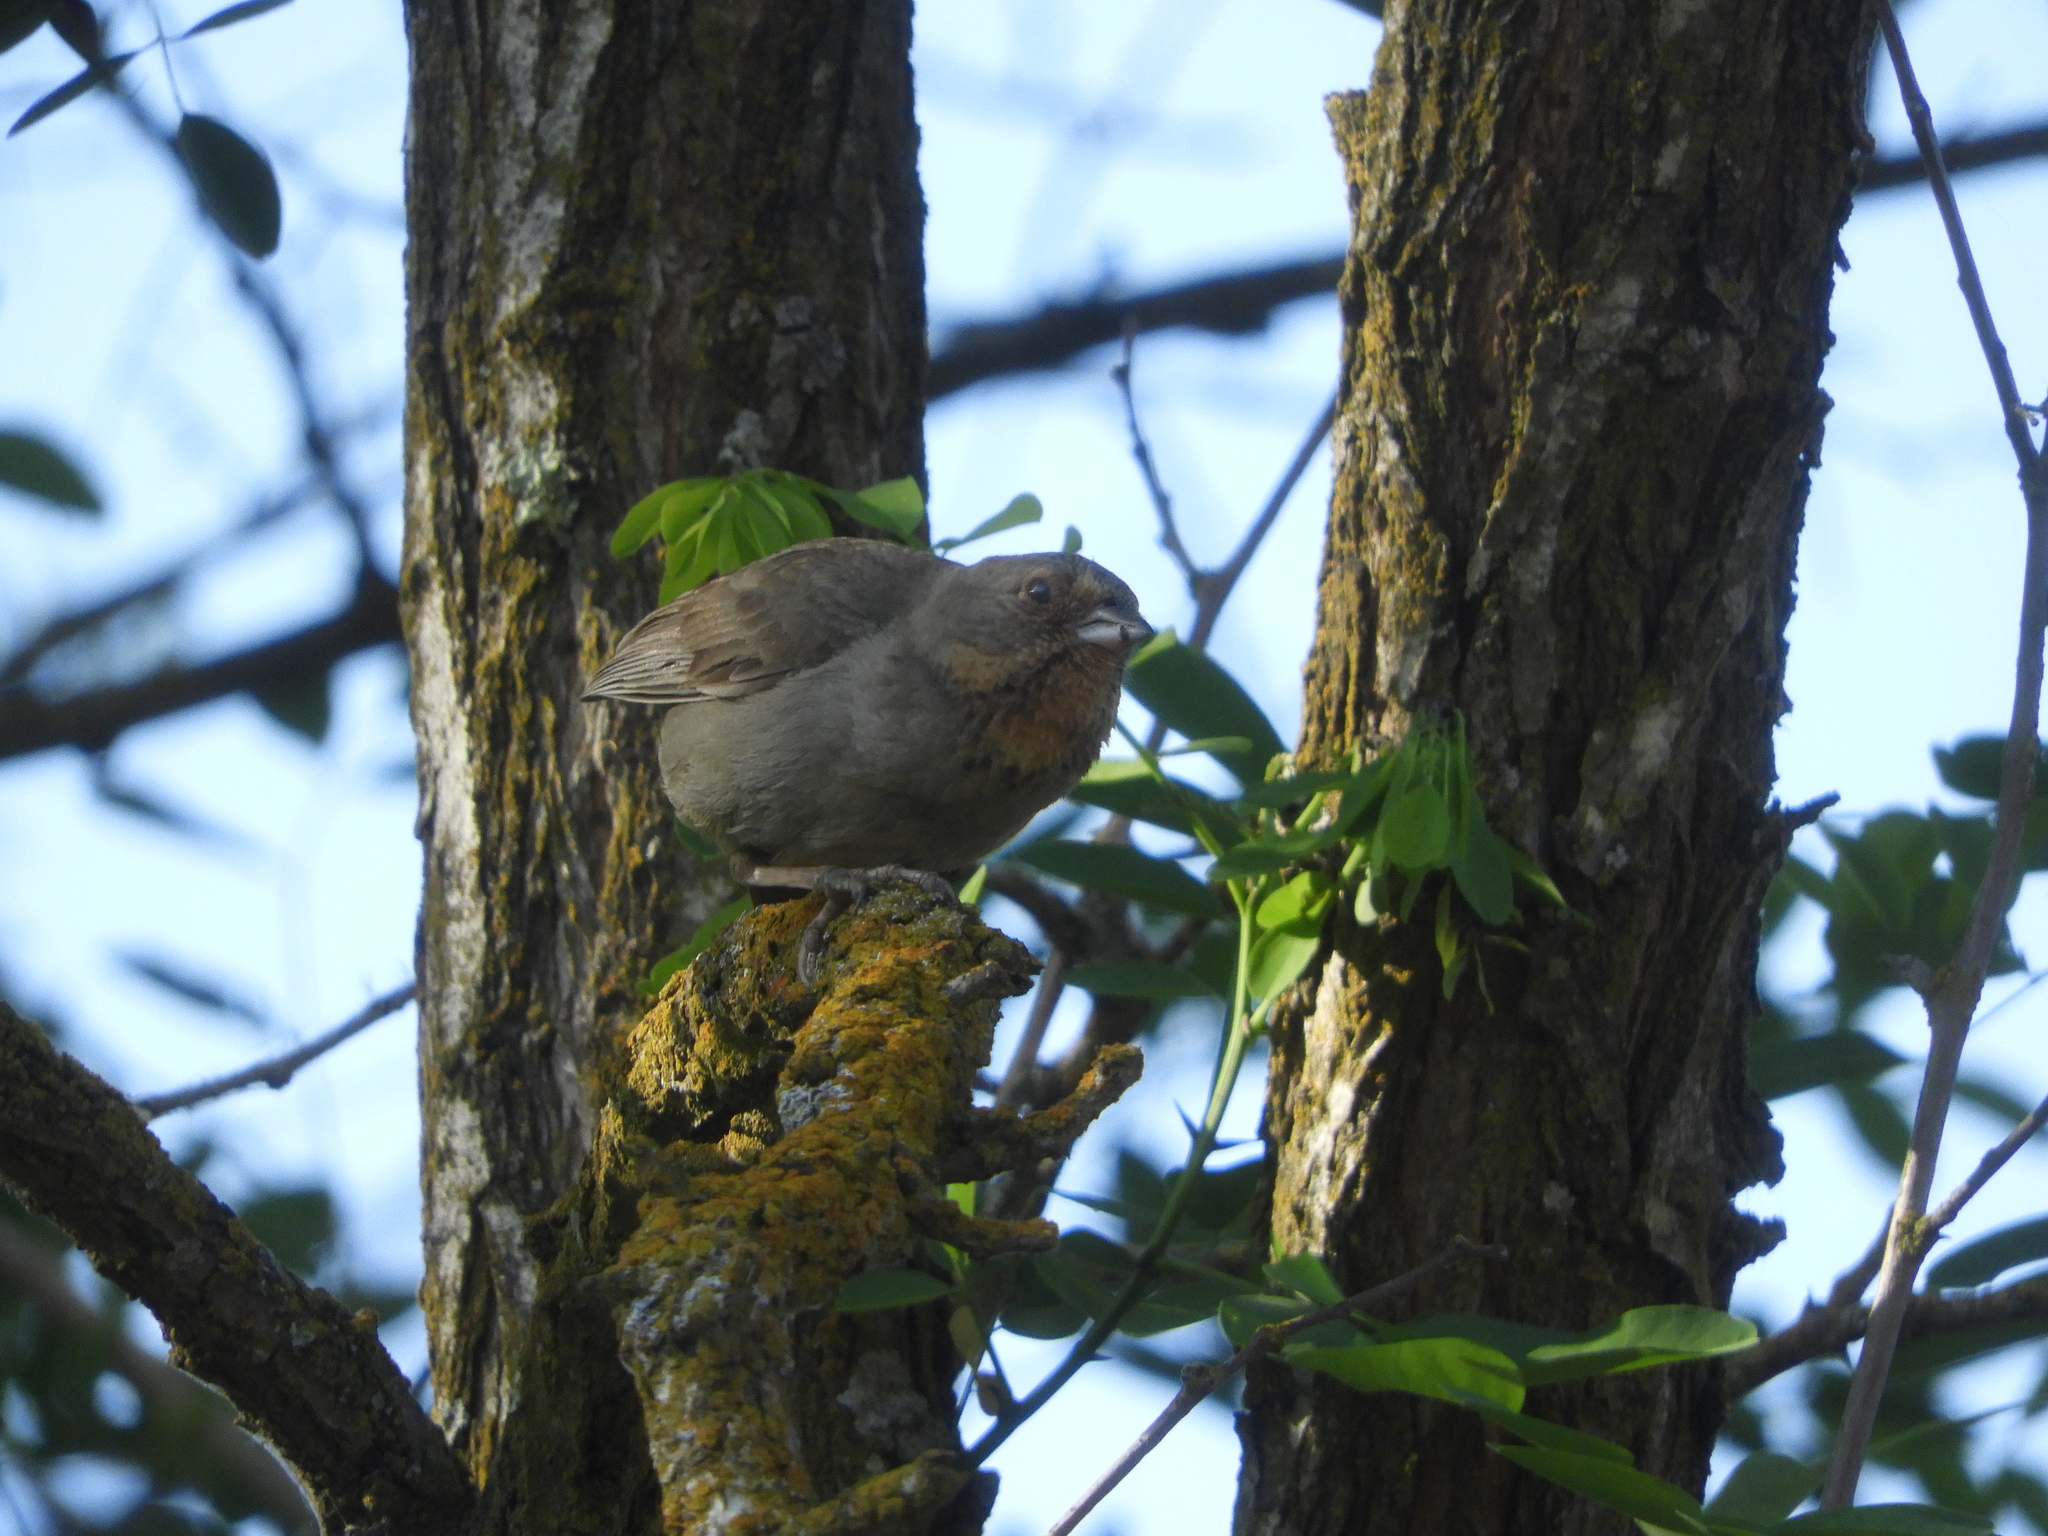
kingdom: Animalia
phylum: Chordata
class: Aves
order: Passeriformes
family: Passerellidae
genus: Melozone
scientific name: Melozone crissalis
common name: California towhee
